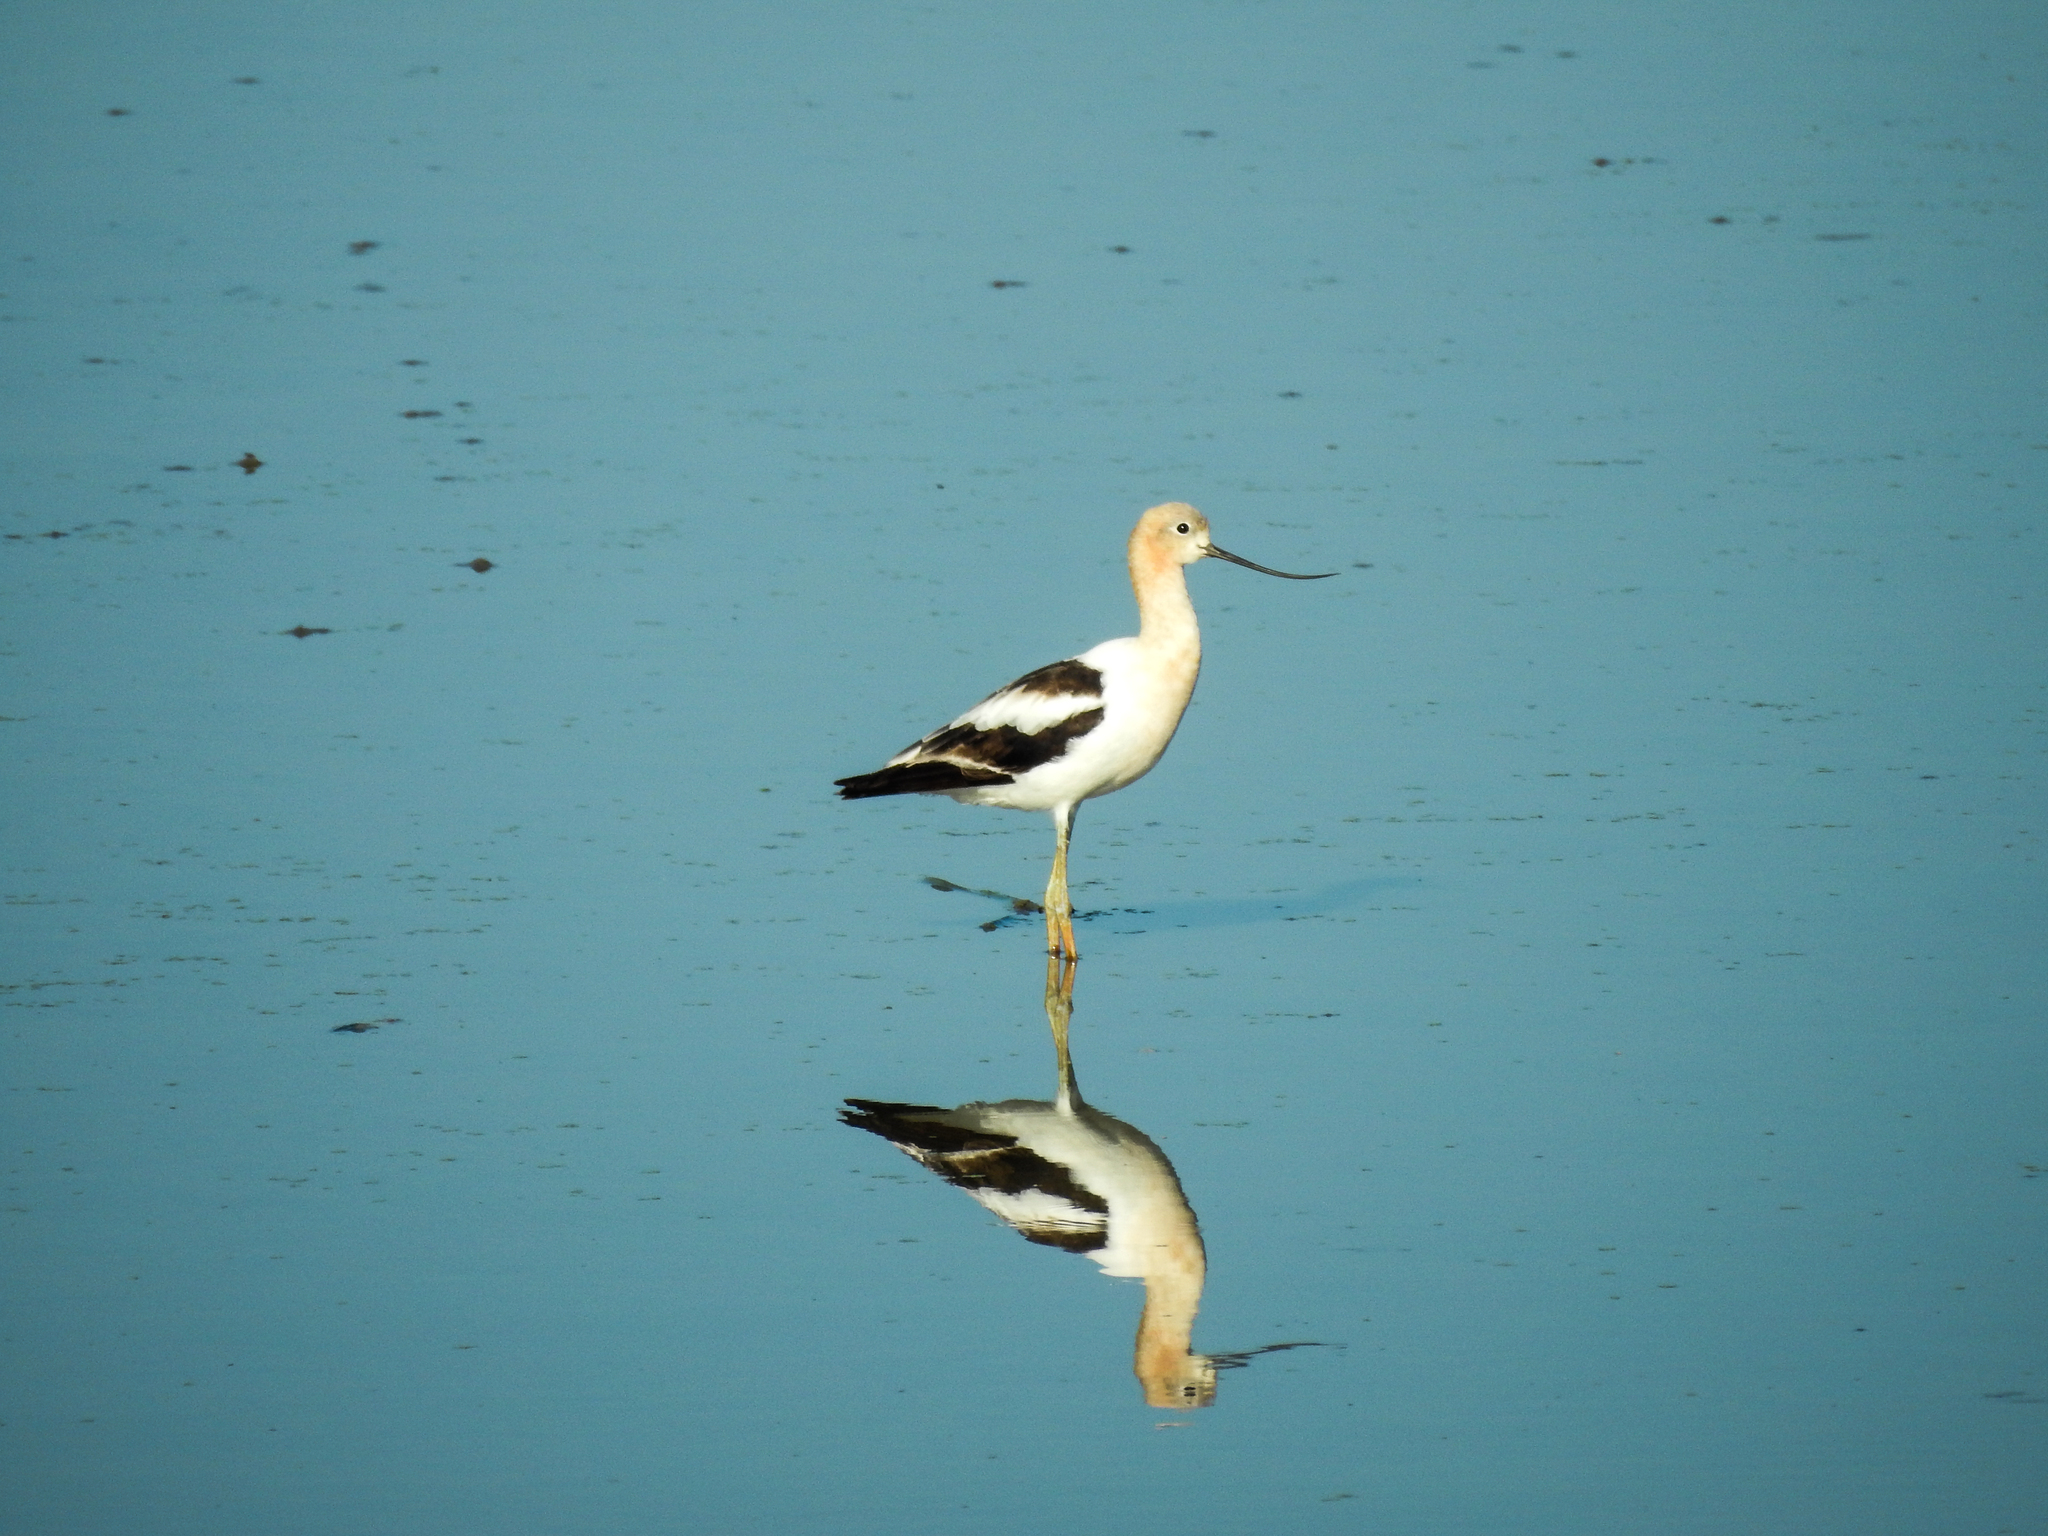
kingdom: Animalia
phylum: Chordata
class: Aves
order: Charadriiformes
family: Recurvirostridae
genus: Recurvirostra
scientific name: Recurvirostra americana
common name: American avocet
